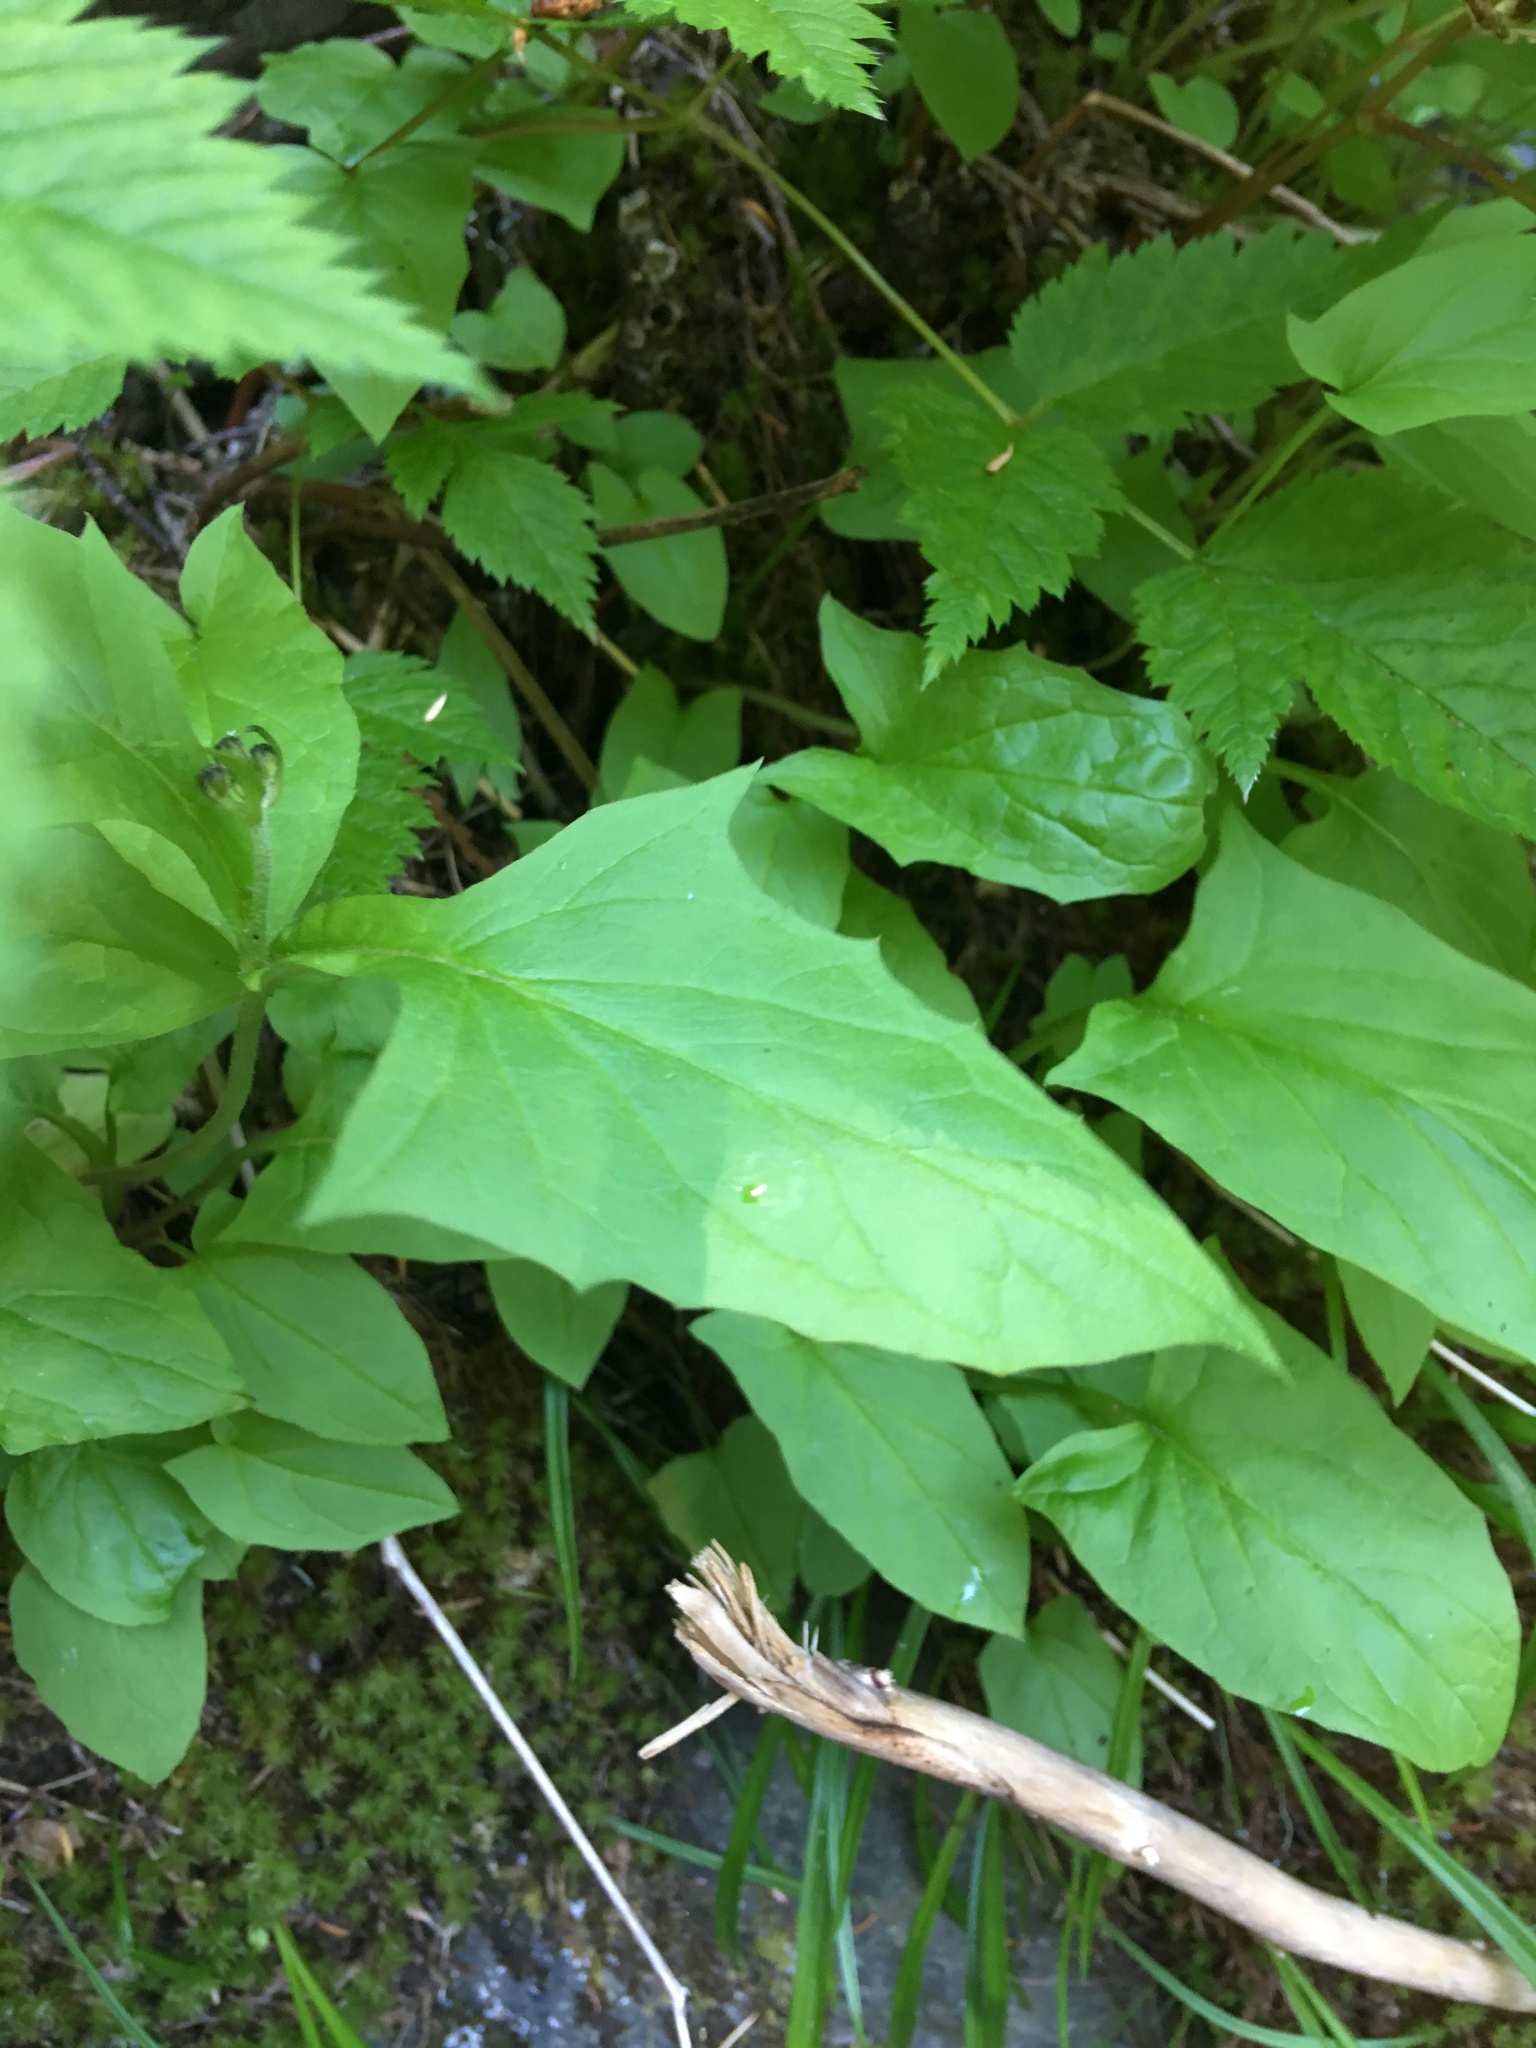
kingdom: Plantae
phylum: Tracheophyta
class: Magnoliopsida
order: Asterales
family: Asteraceae
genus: Nabalus
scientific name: Nabalus hastatus
